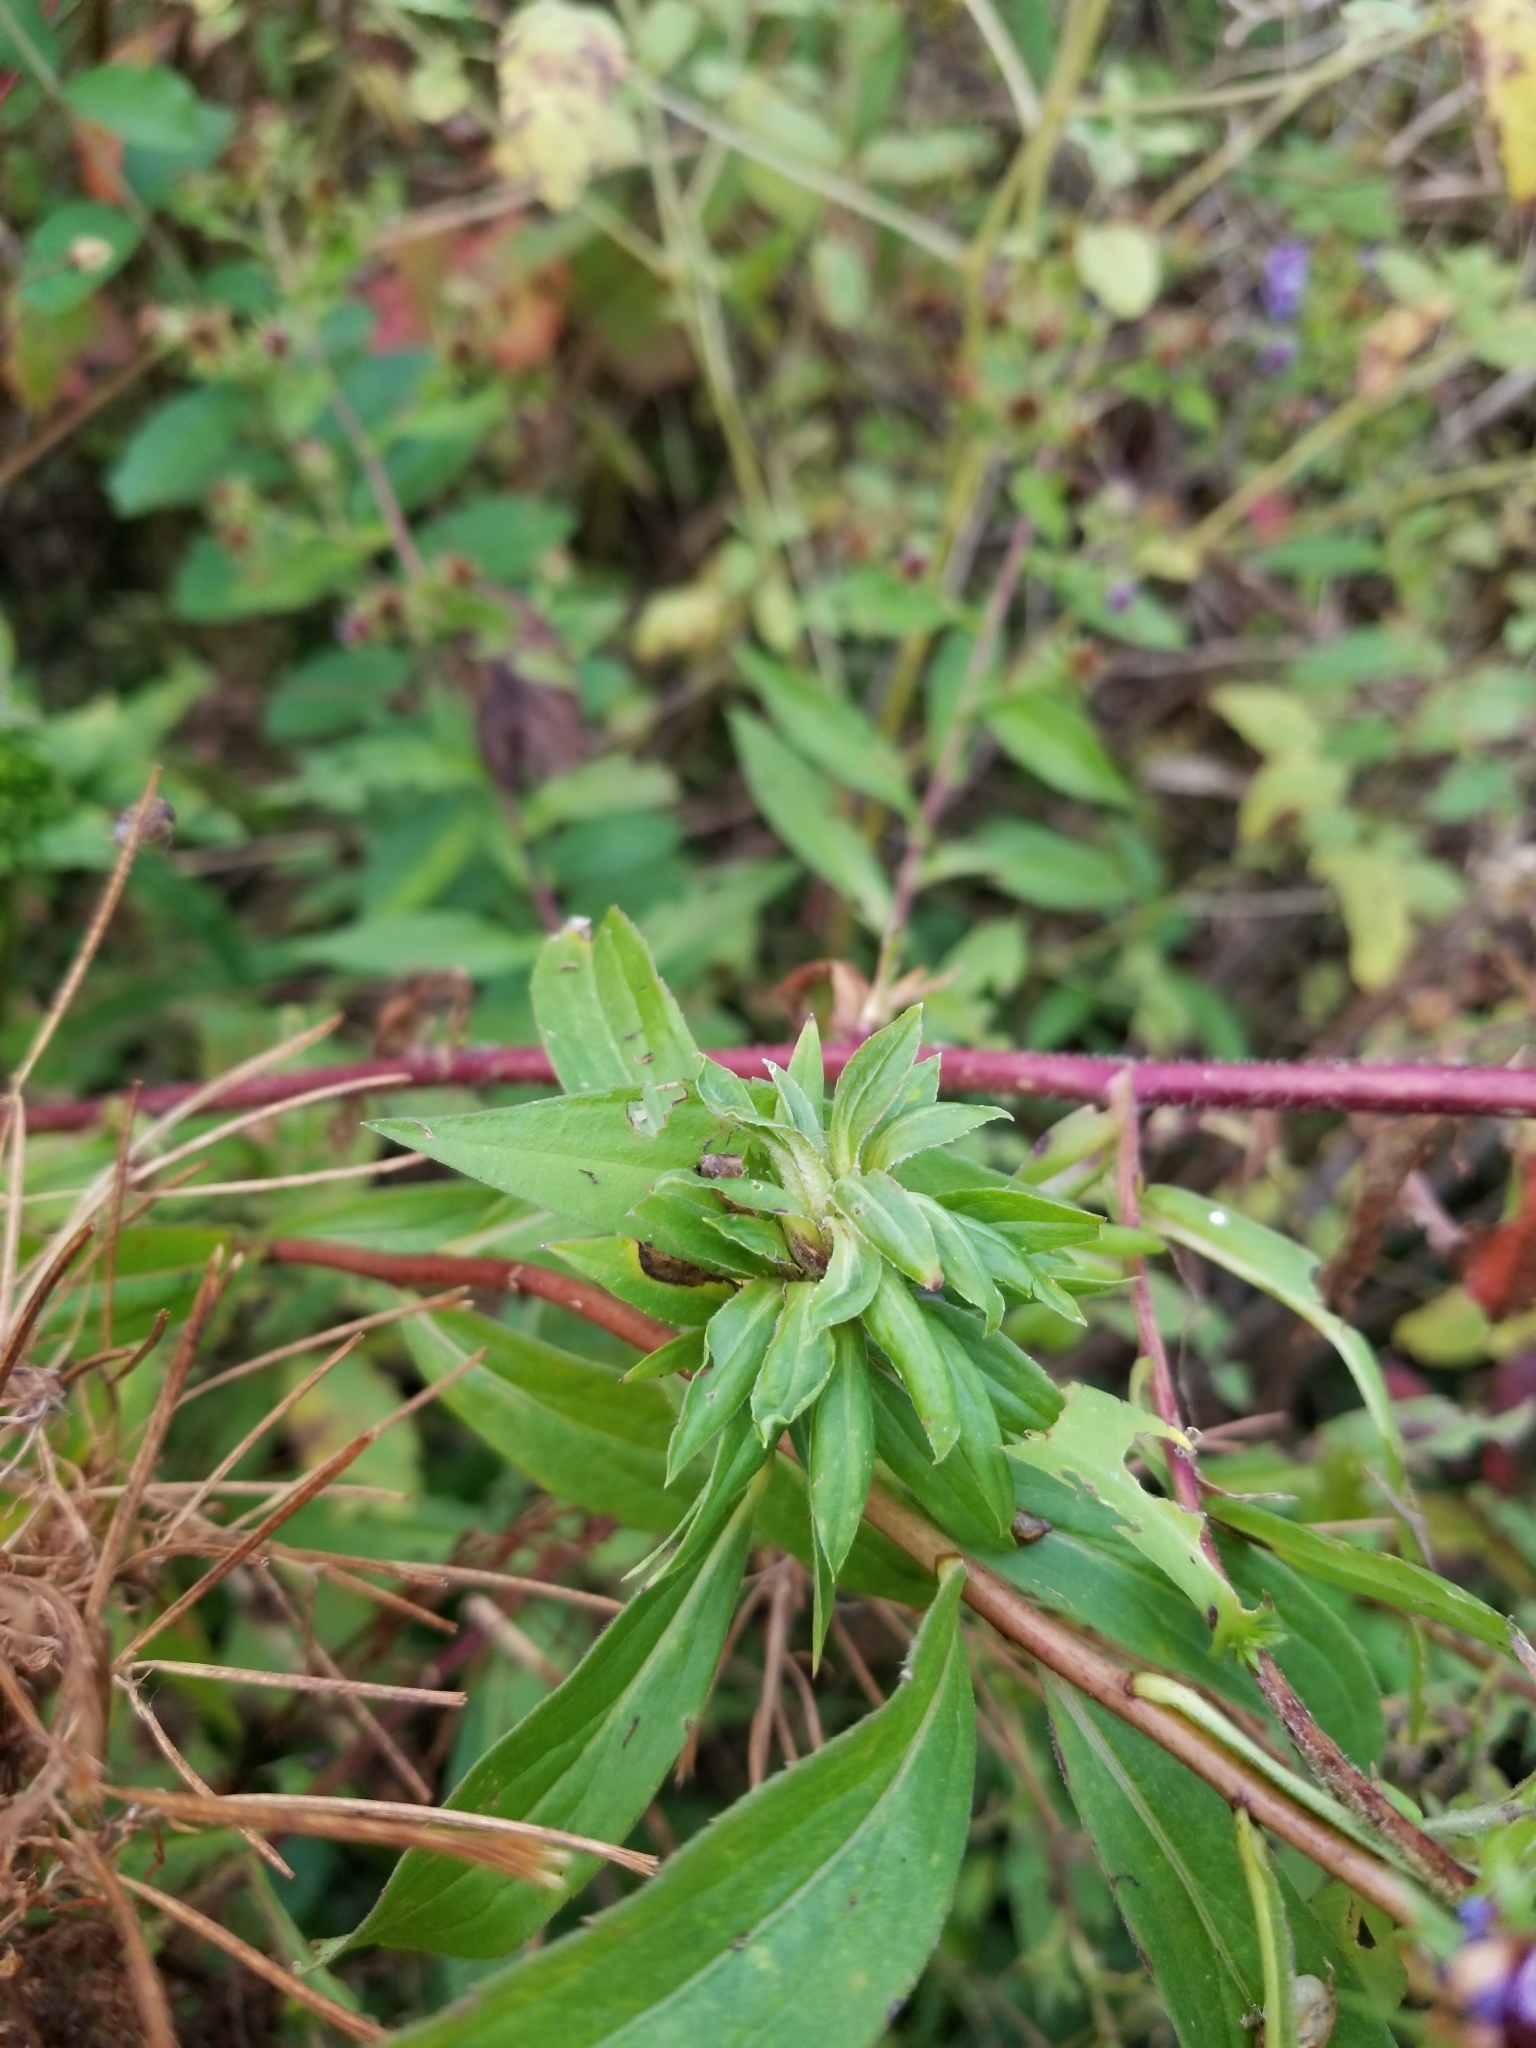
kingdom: Animalia
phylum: Arthropoda
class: Insecta
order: Diptera
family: Tephritidae
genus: Procecidochares
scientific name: Procecidochares atra
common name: Goldenrod brussels sprout gall fly
